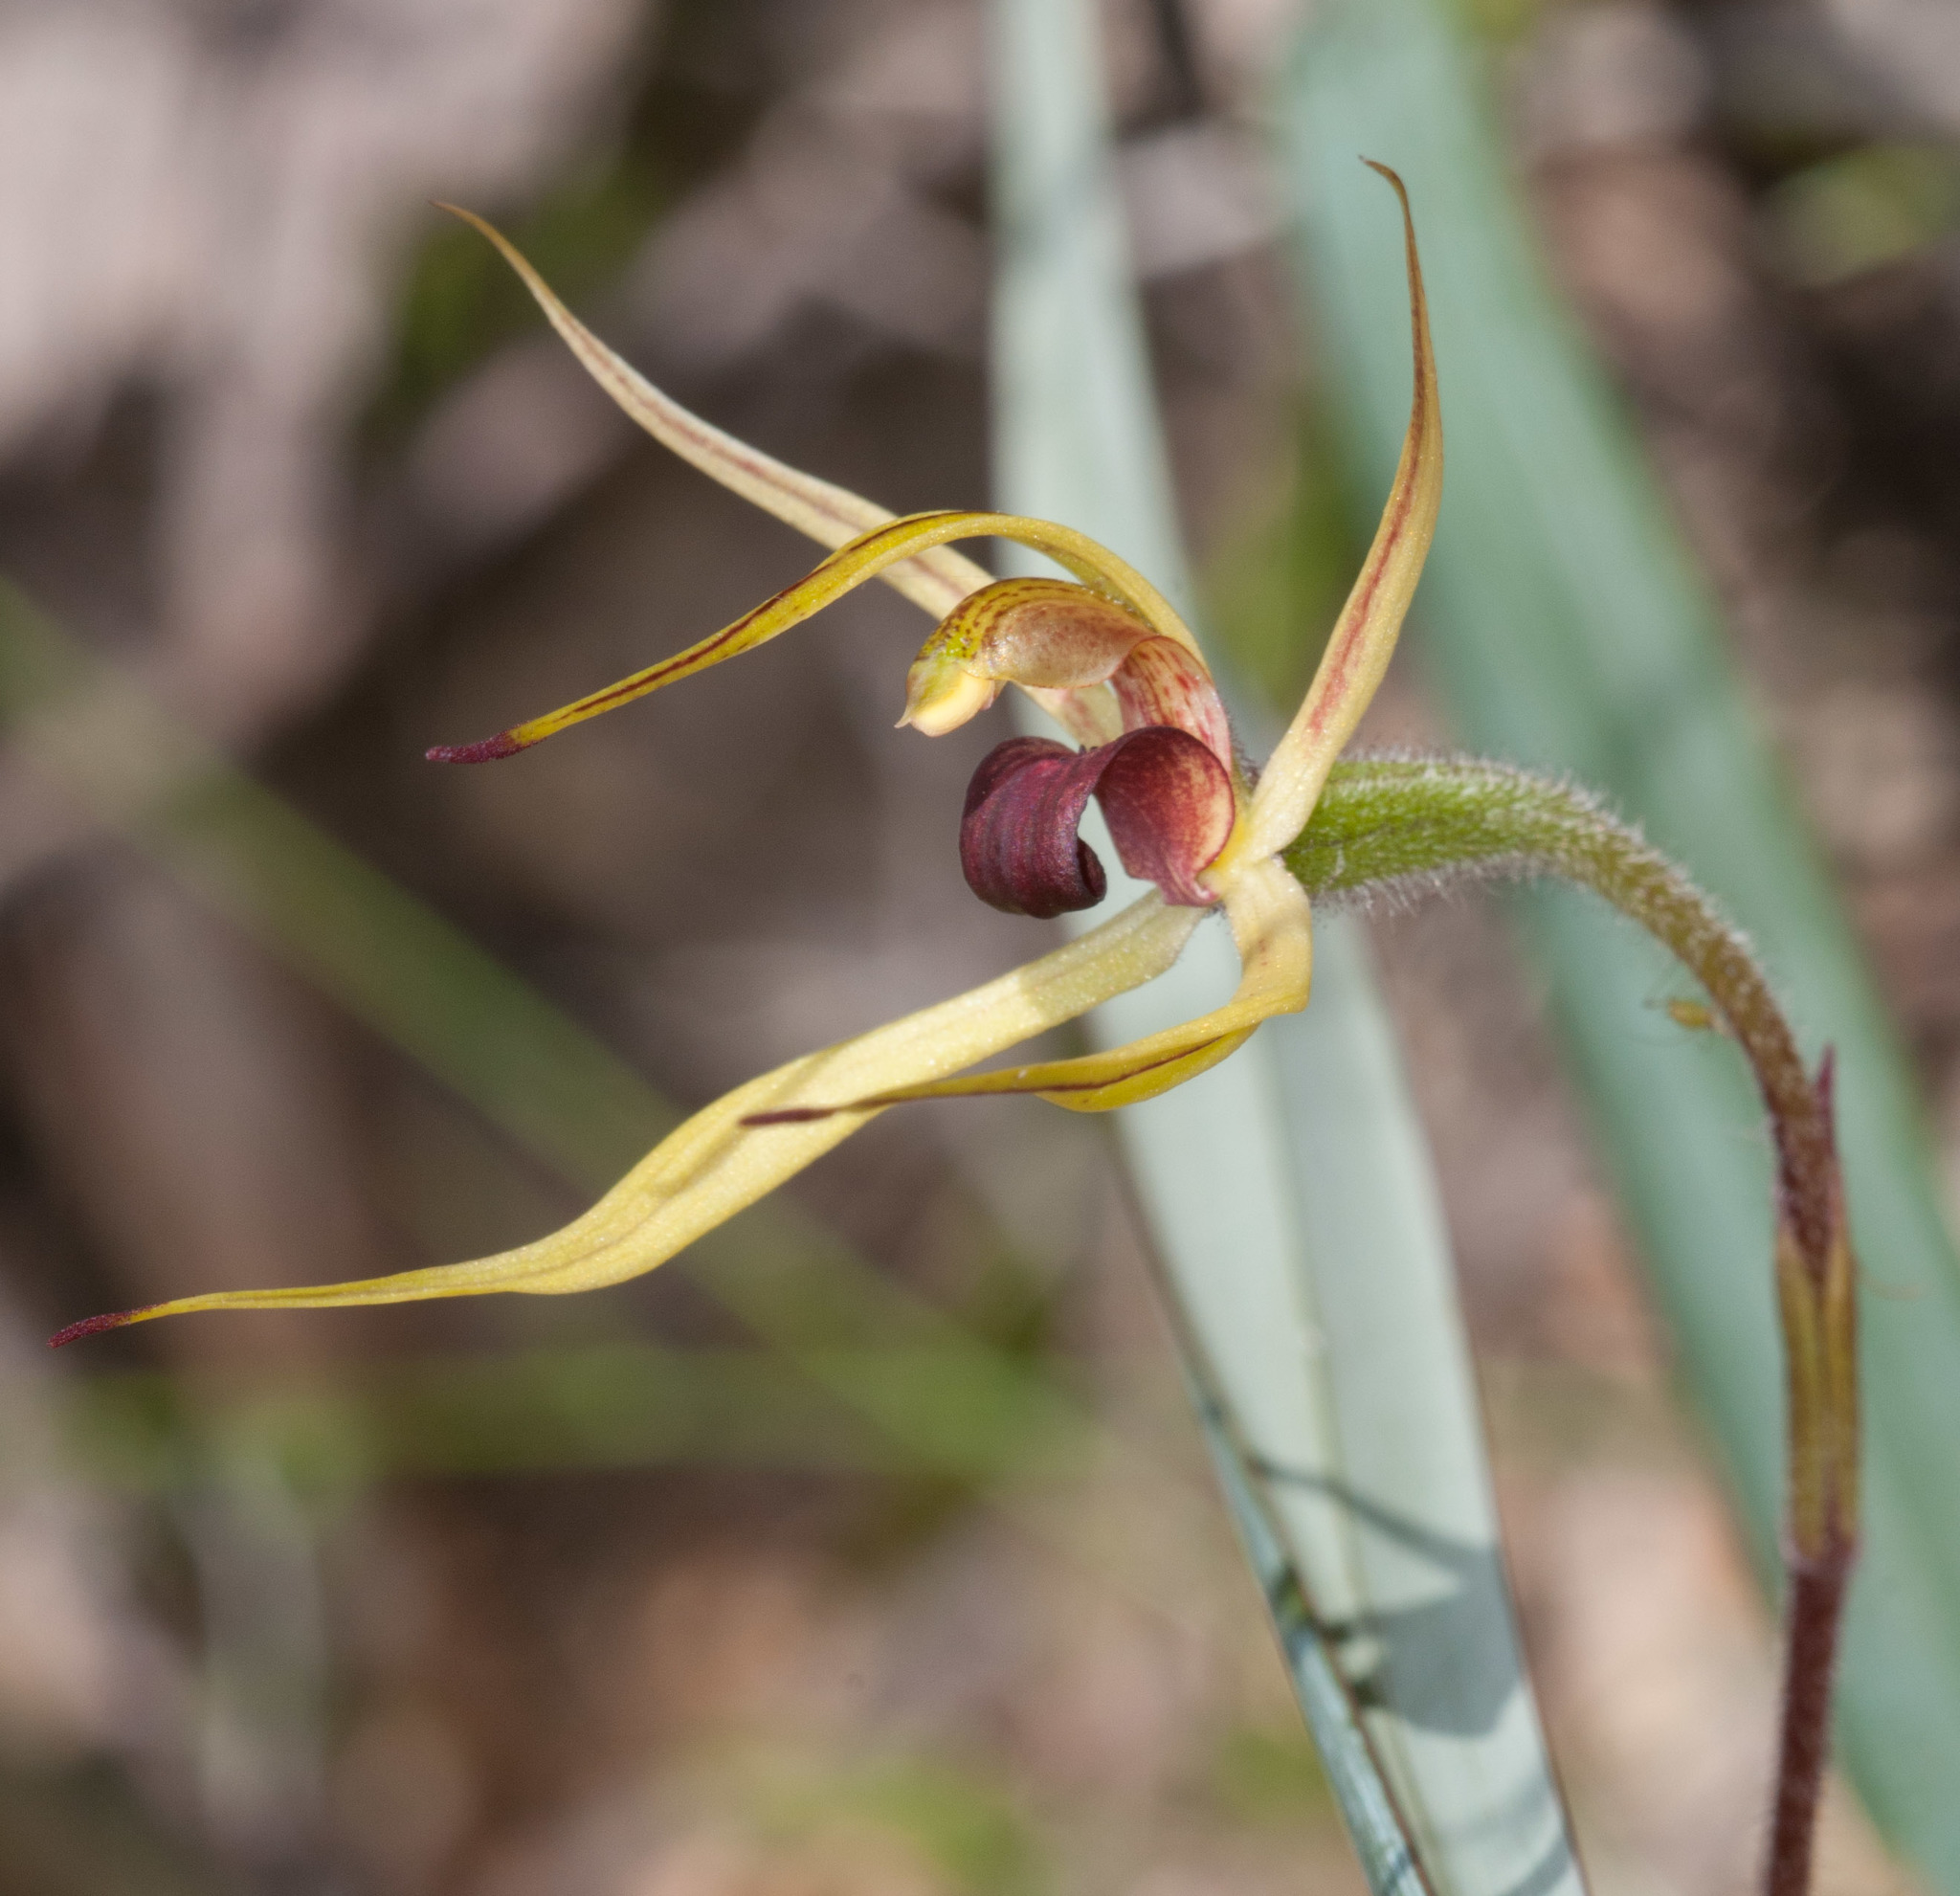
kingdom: Plantae
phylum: Tracheophyta
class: Liliopsida
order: Asparagales
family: Orchidaceae
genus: Caladenia
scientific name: Caladenia leptochila
